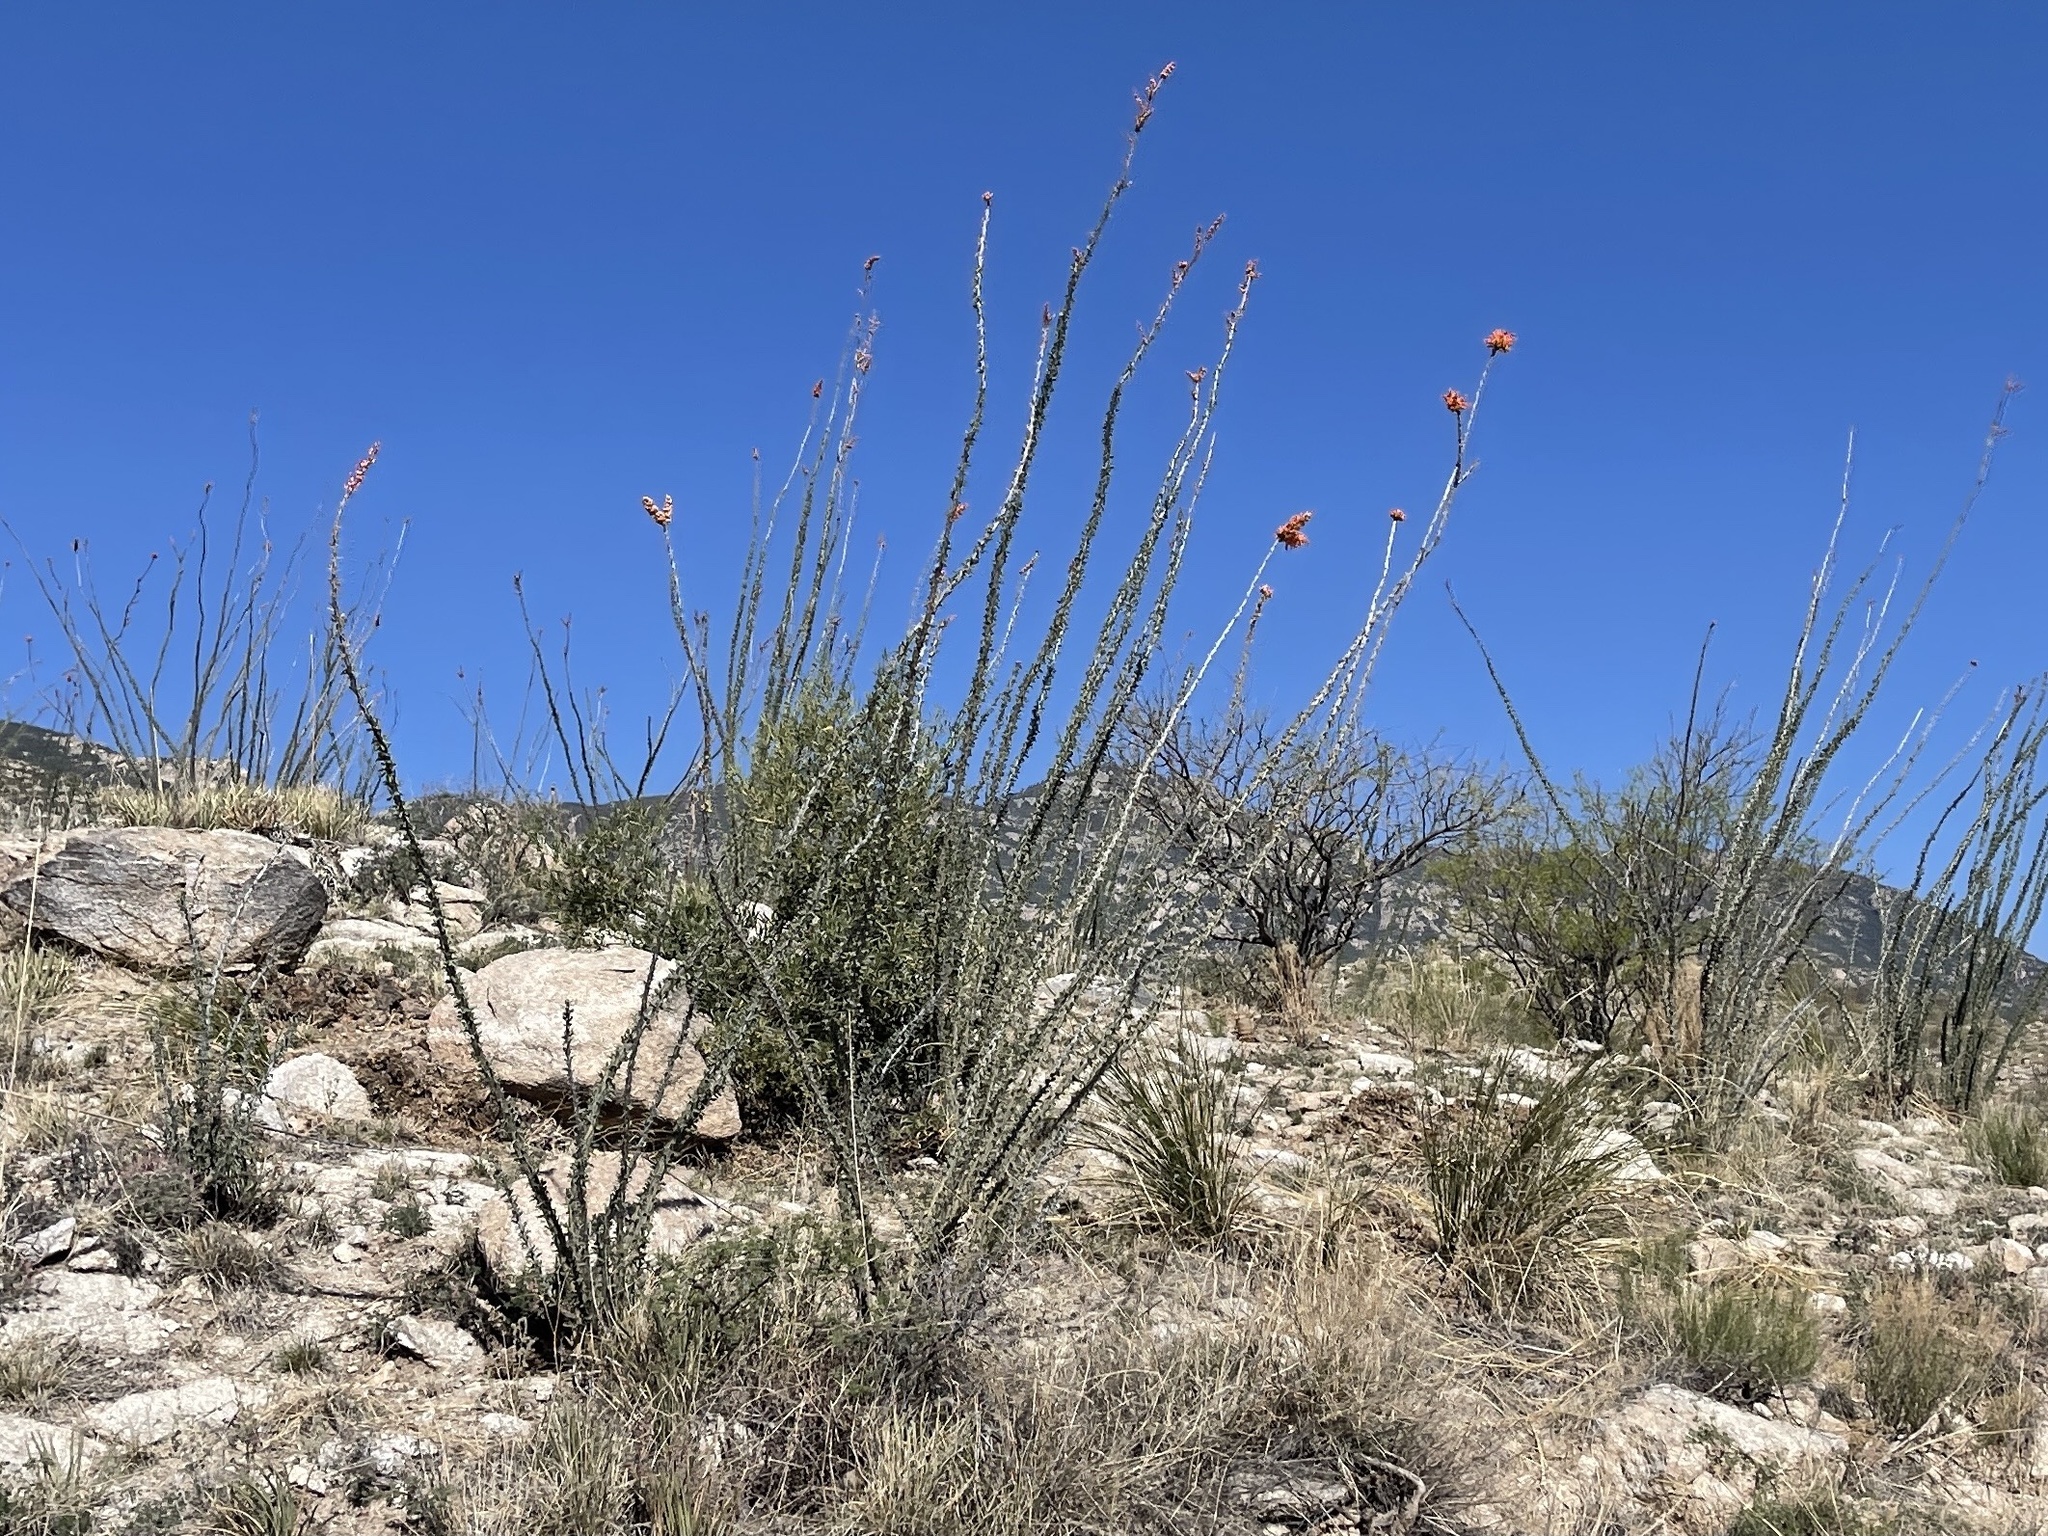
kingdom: Plantae
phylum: Tracheophyta
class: Magnoliopsida
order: Ericales
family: Fouquieriaceae
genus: Fouquieria
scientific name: Fouquieria splendens
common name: Vine-cactus
